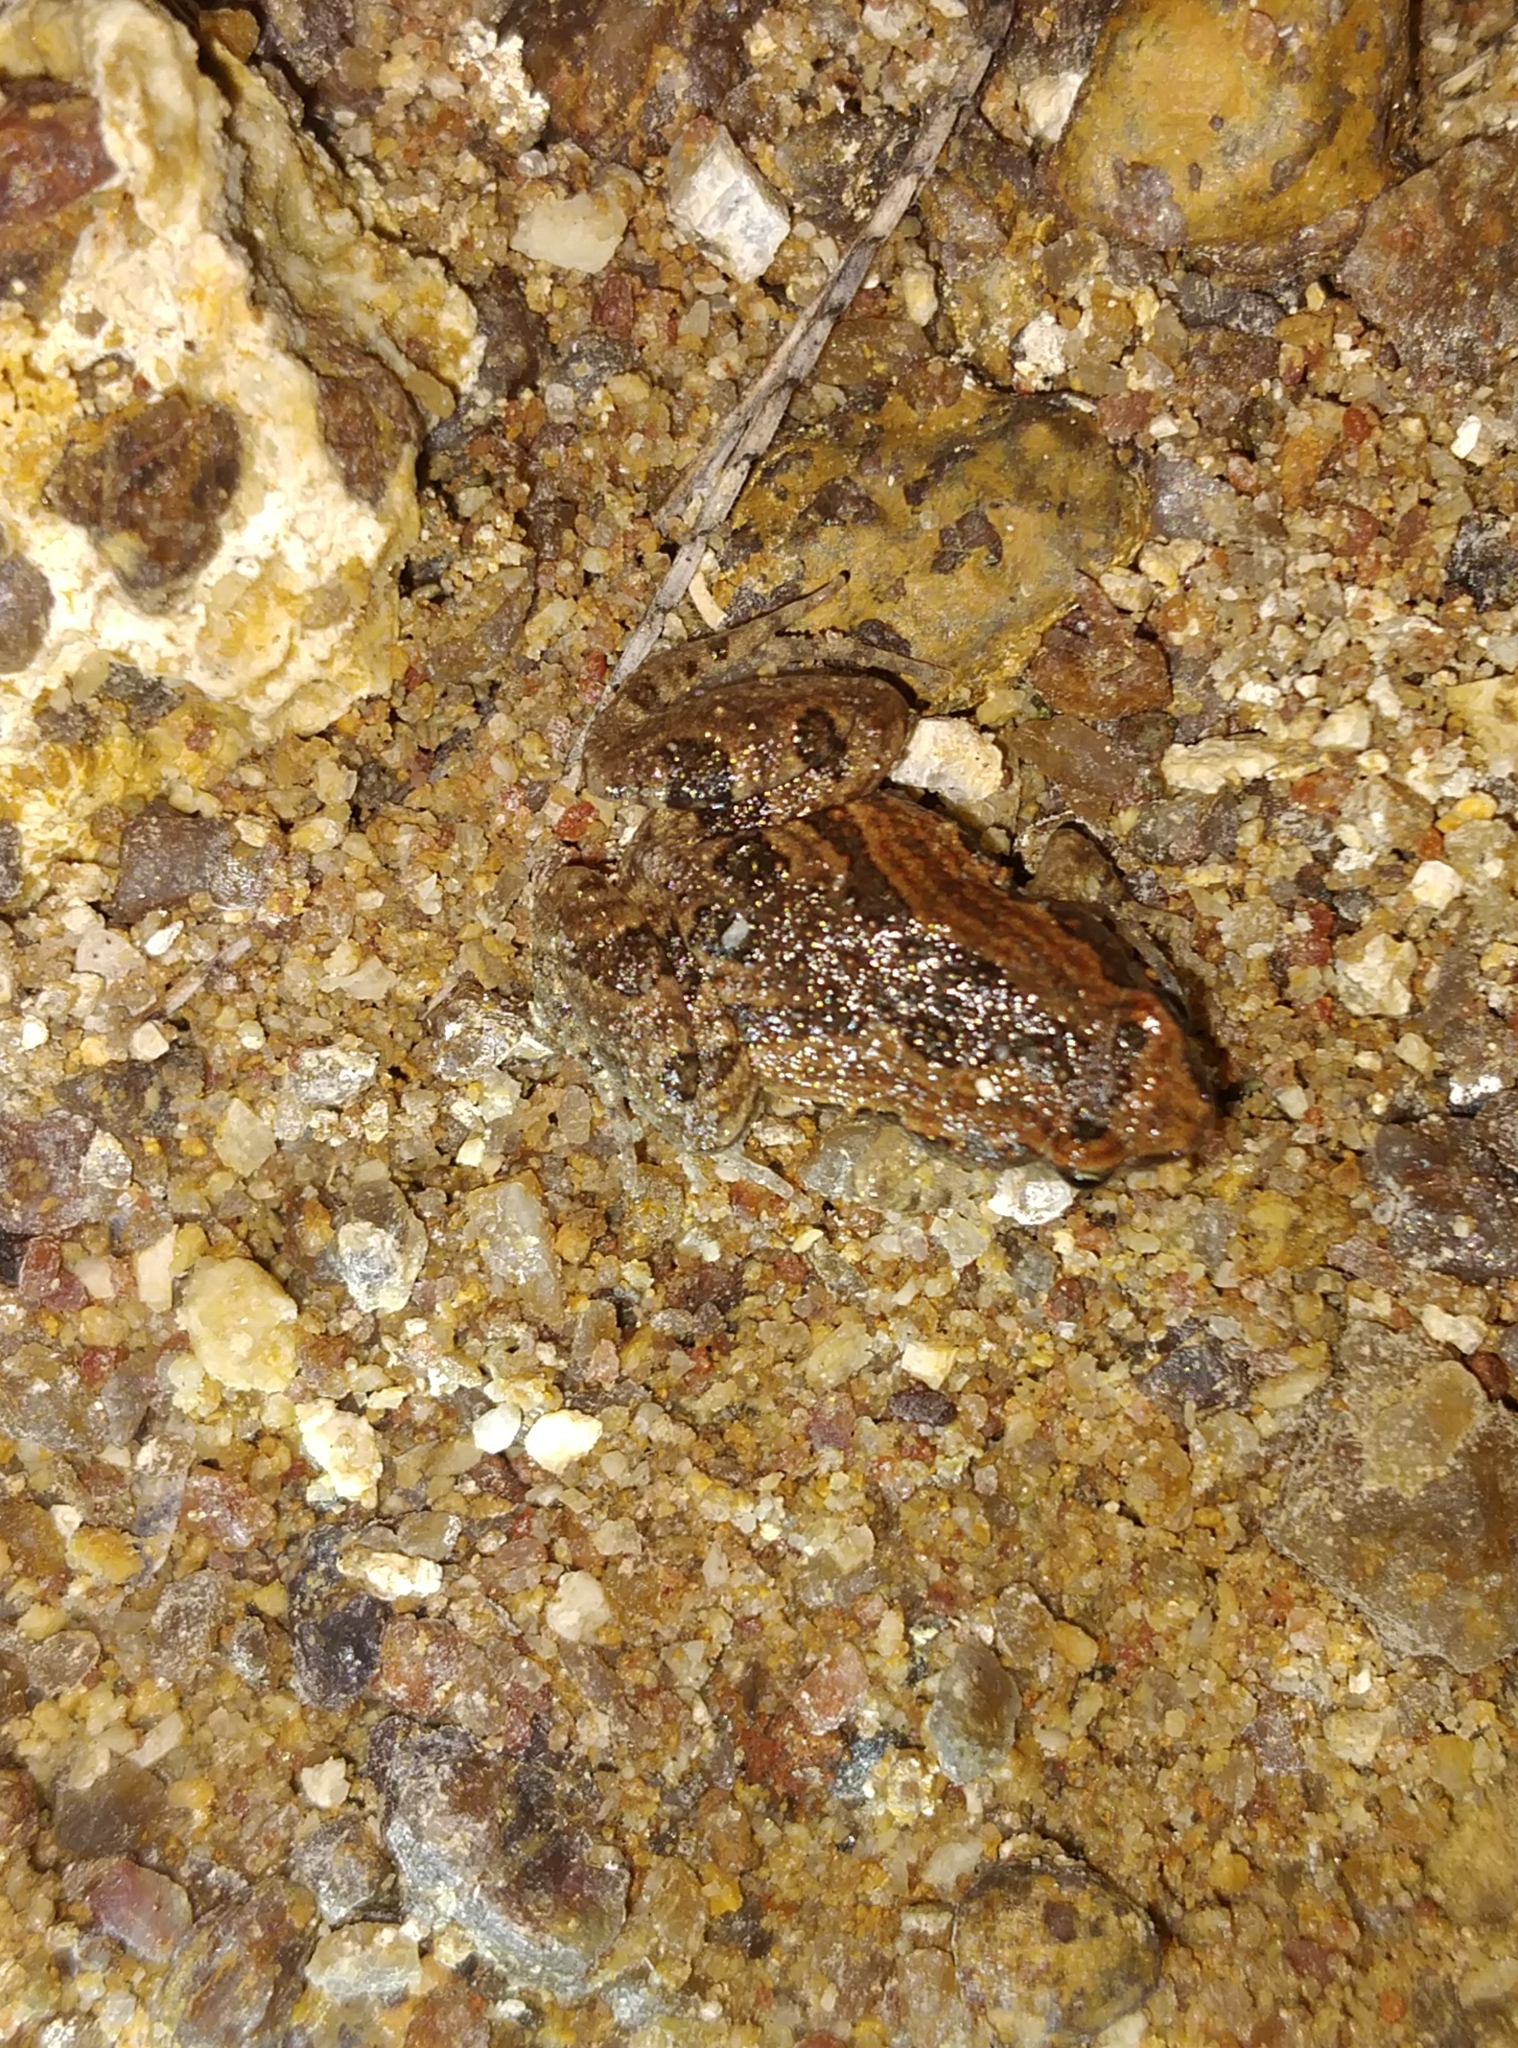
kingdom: Animalia
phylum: Chordata
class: Amphibia
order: Anura
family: Microhylidae
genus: Microhyla
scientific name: Microhyla ornata
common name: Ant frog
